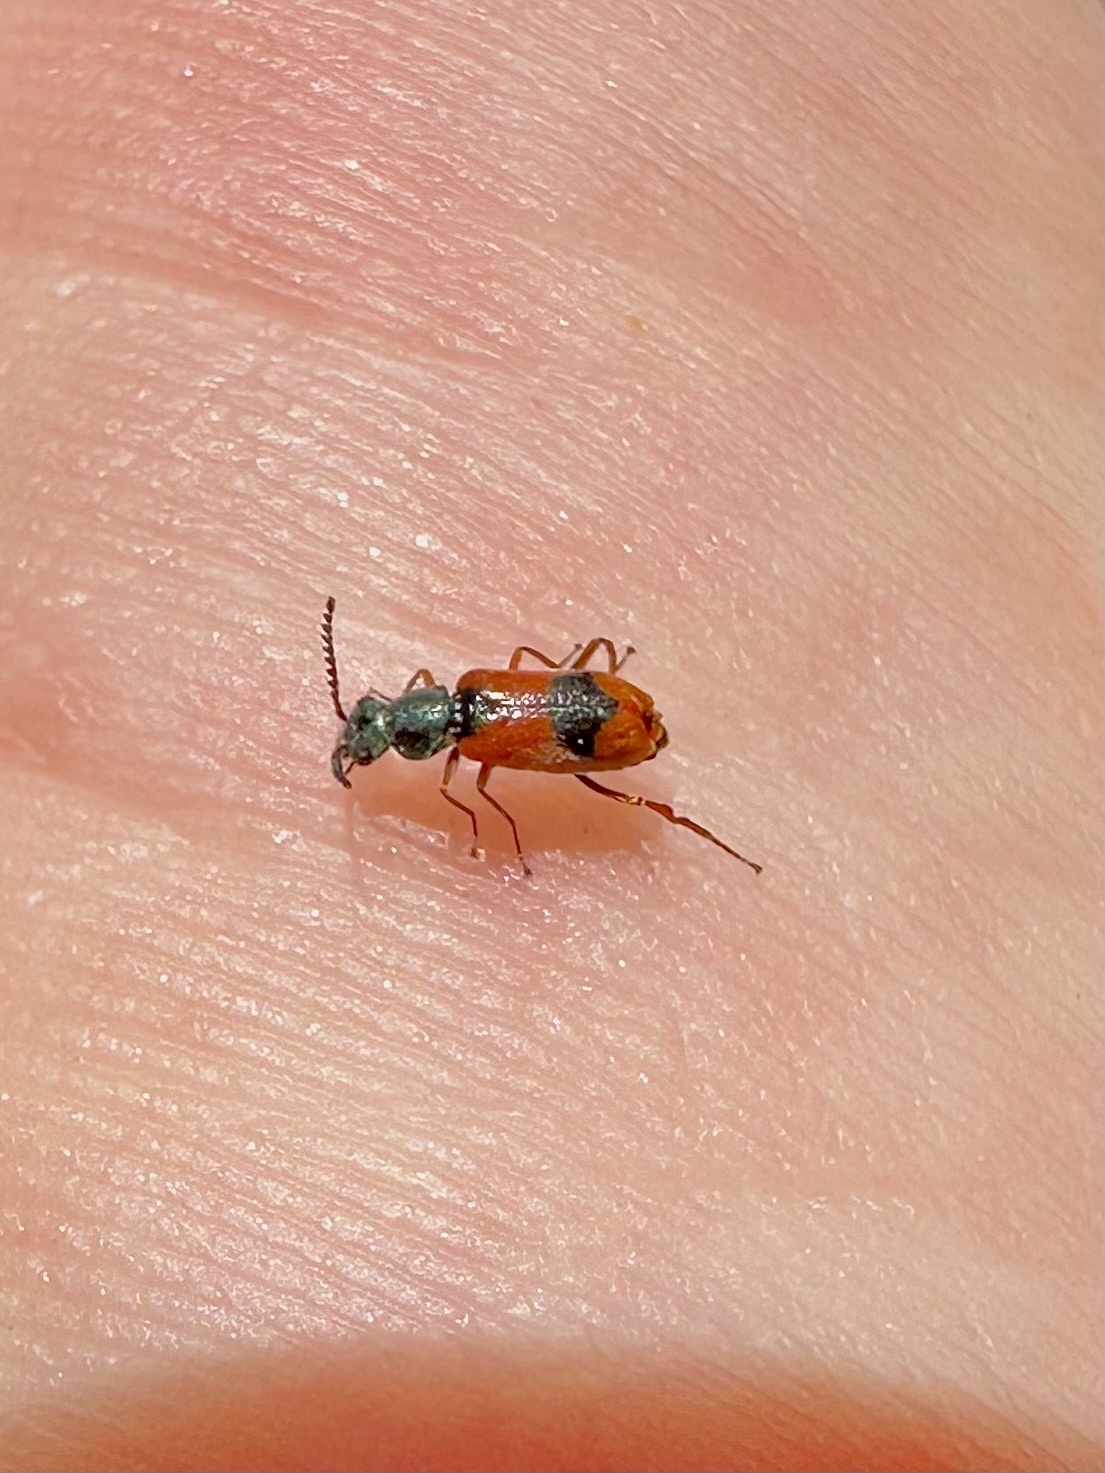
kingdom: Animalia
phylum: Arthropoda
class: Insecta
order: Coleoptera
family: Melyridae
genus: Anthocomus
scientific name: Anthocomus equestris
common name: Black-banded soft-winged flower beetle
